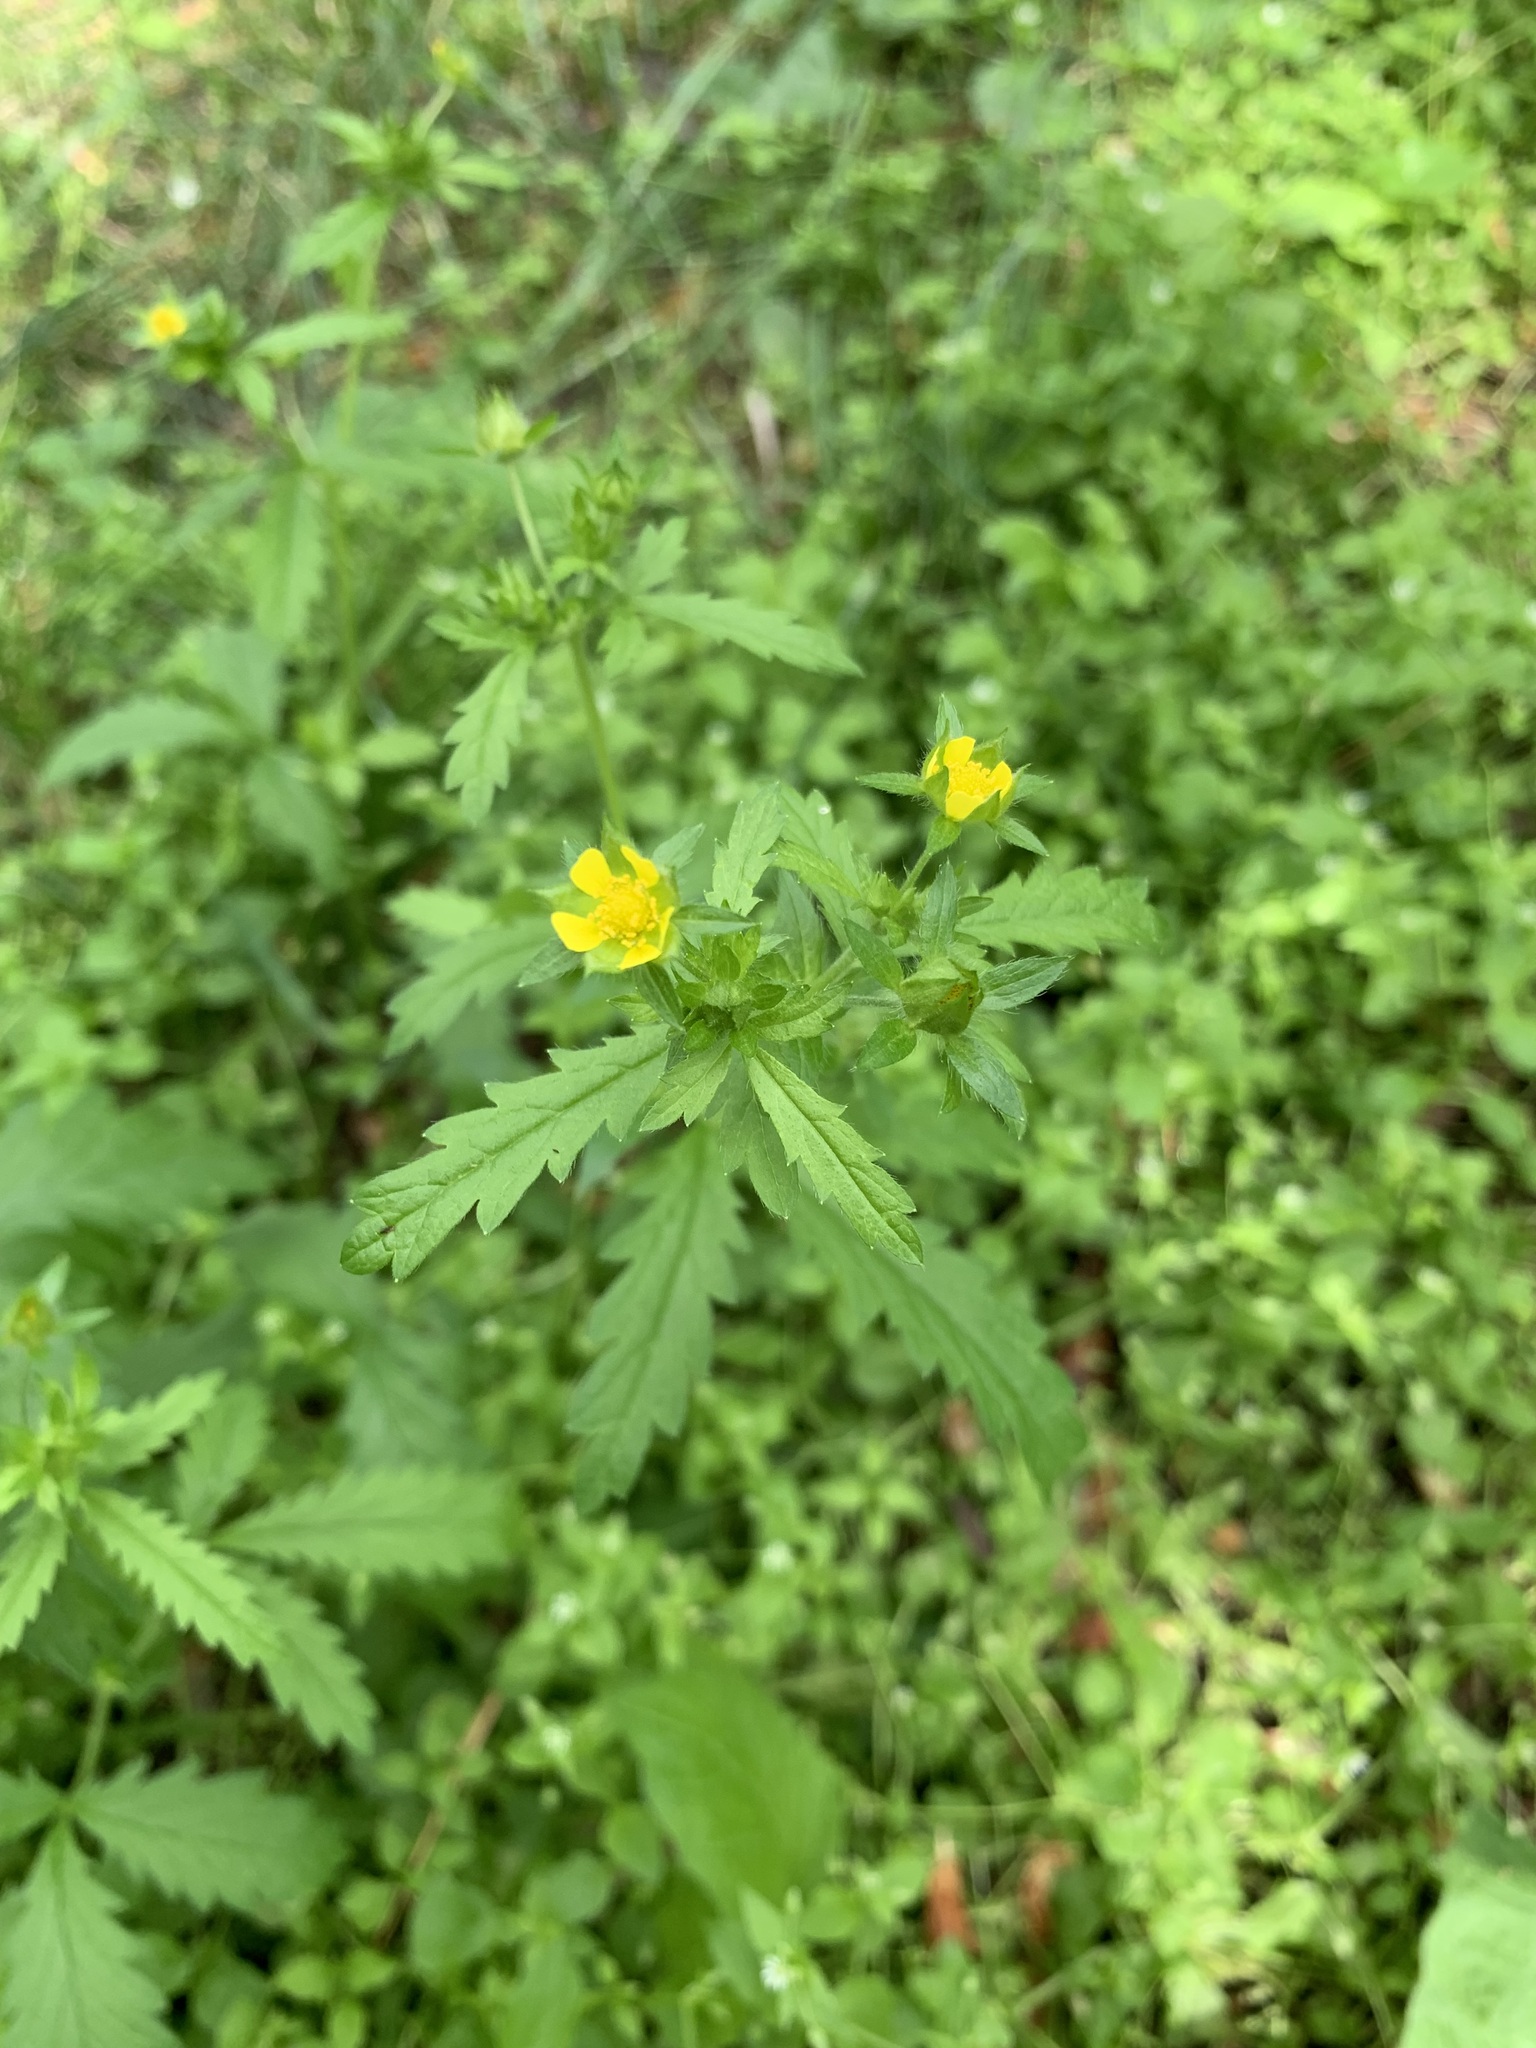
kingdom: Plantae
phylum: Tracheophyta
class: Magnoliopsida
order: Rosales
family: Rosaceae
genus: Potentilla
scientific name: Potentilla norvegica
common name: Ternate-leaved cinquefoil
